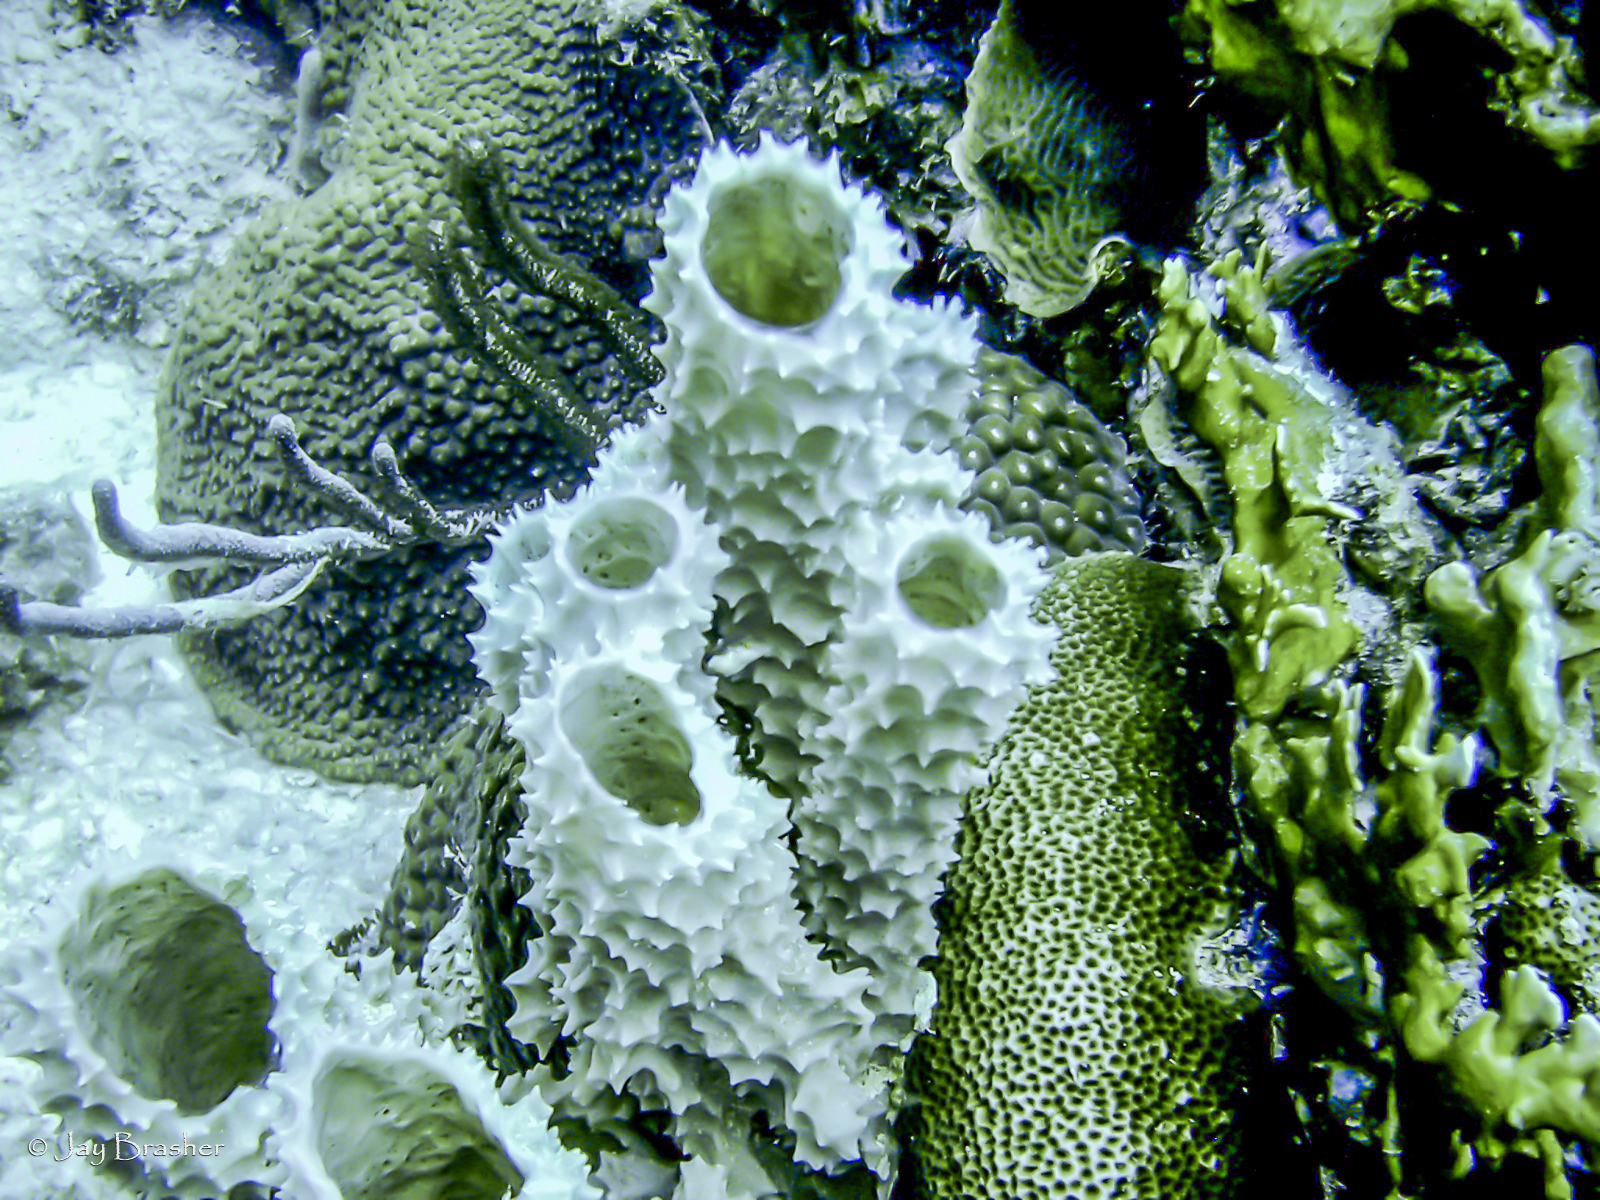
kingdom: Animalia
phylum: Porifera
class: Demospongiae
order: Haplosclerida
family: Callyspongiidae
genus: Callyspongia
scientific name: Callyspongia aculeata
